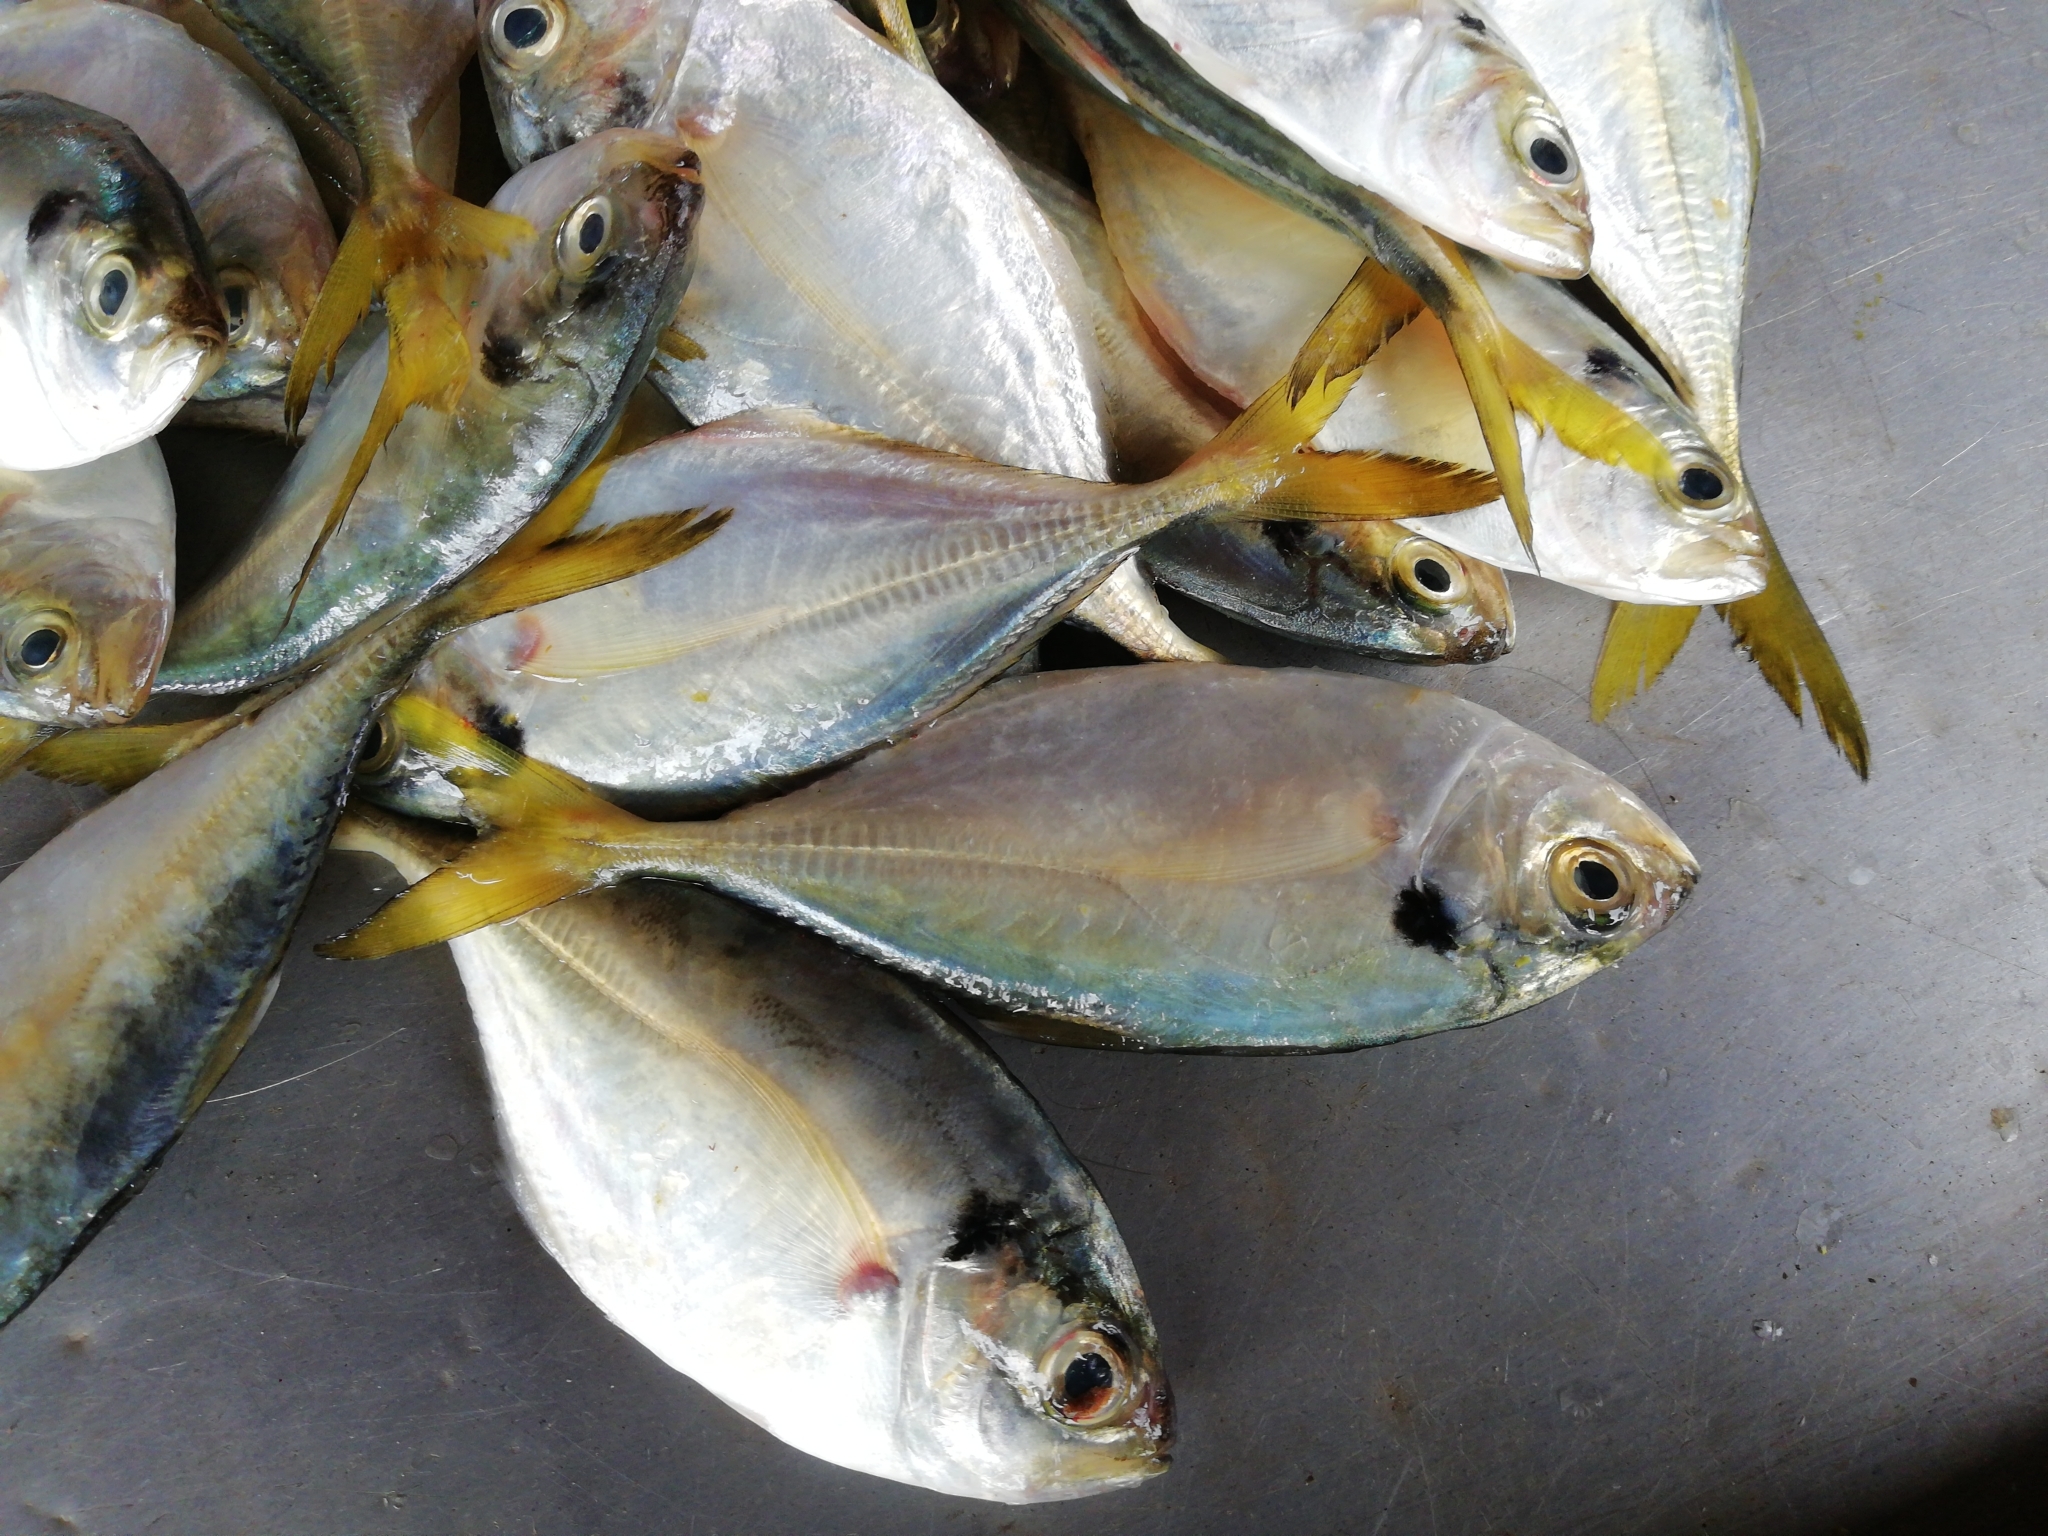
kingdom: Animalia
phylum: Chordata
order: Perciformes
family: Carangidae
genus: Alepes
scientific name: Alepes kleinii
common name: Banded scad
